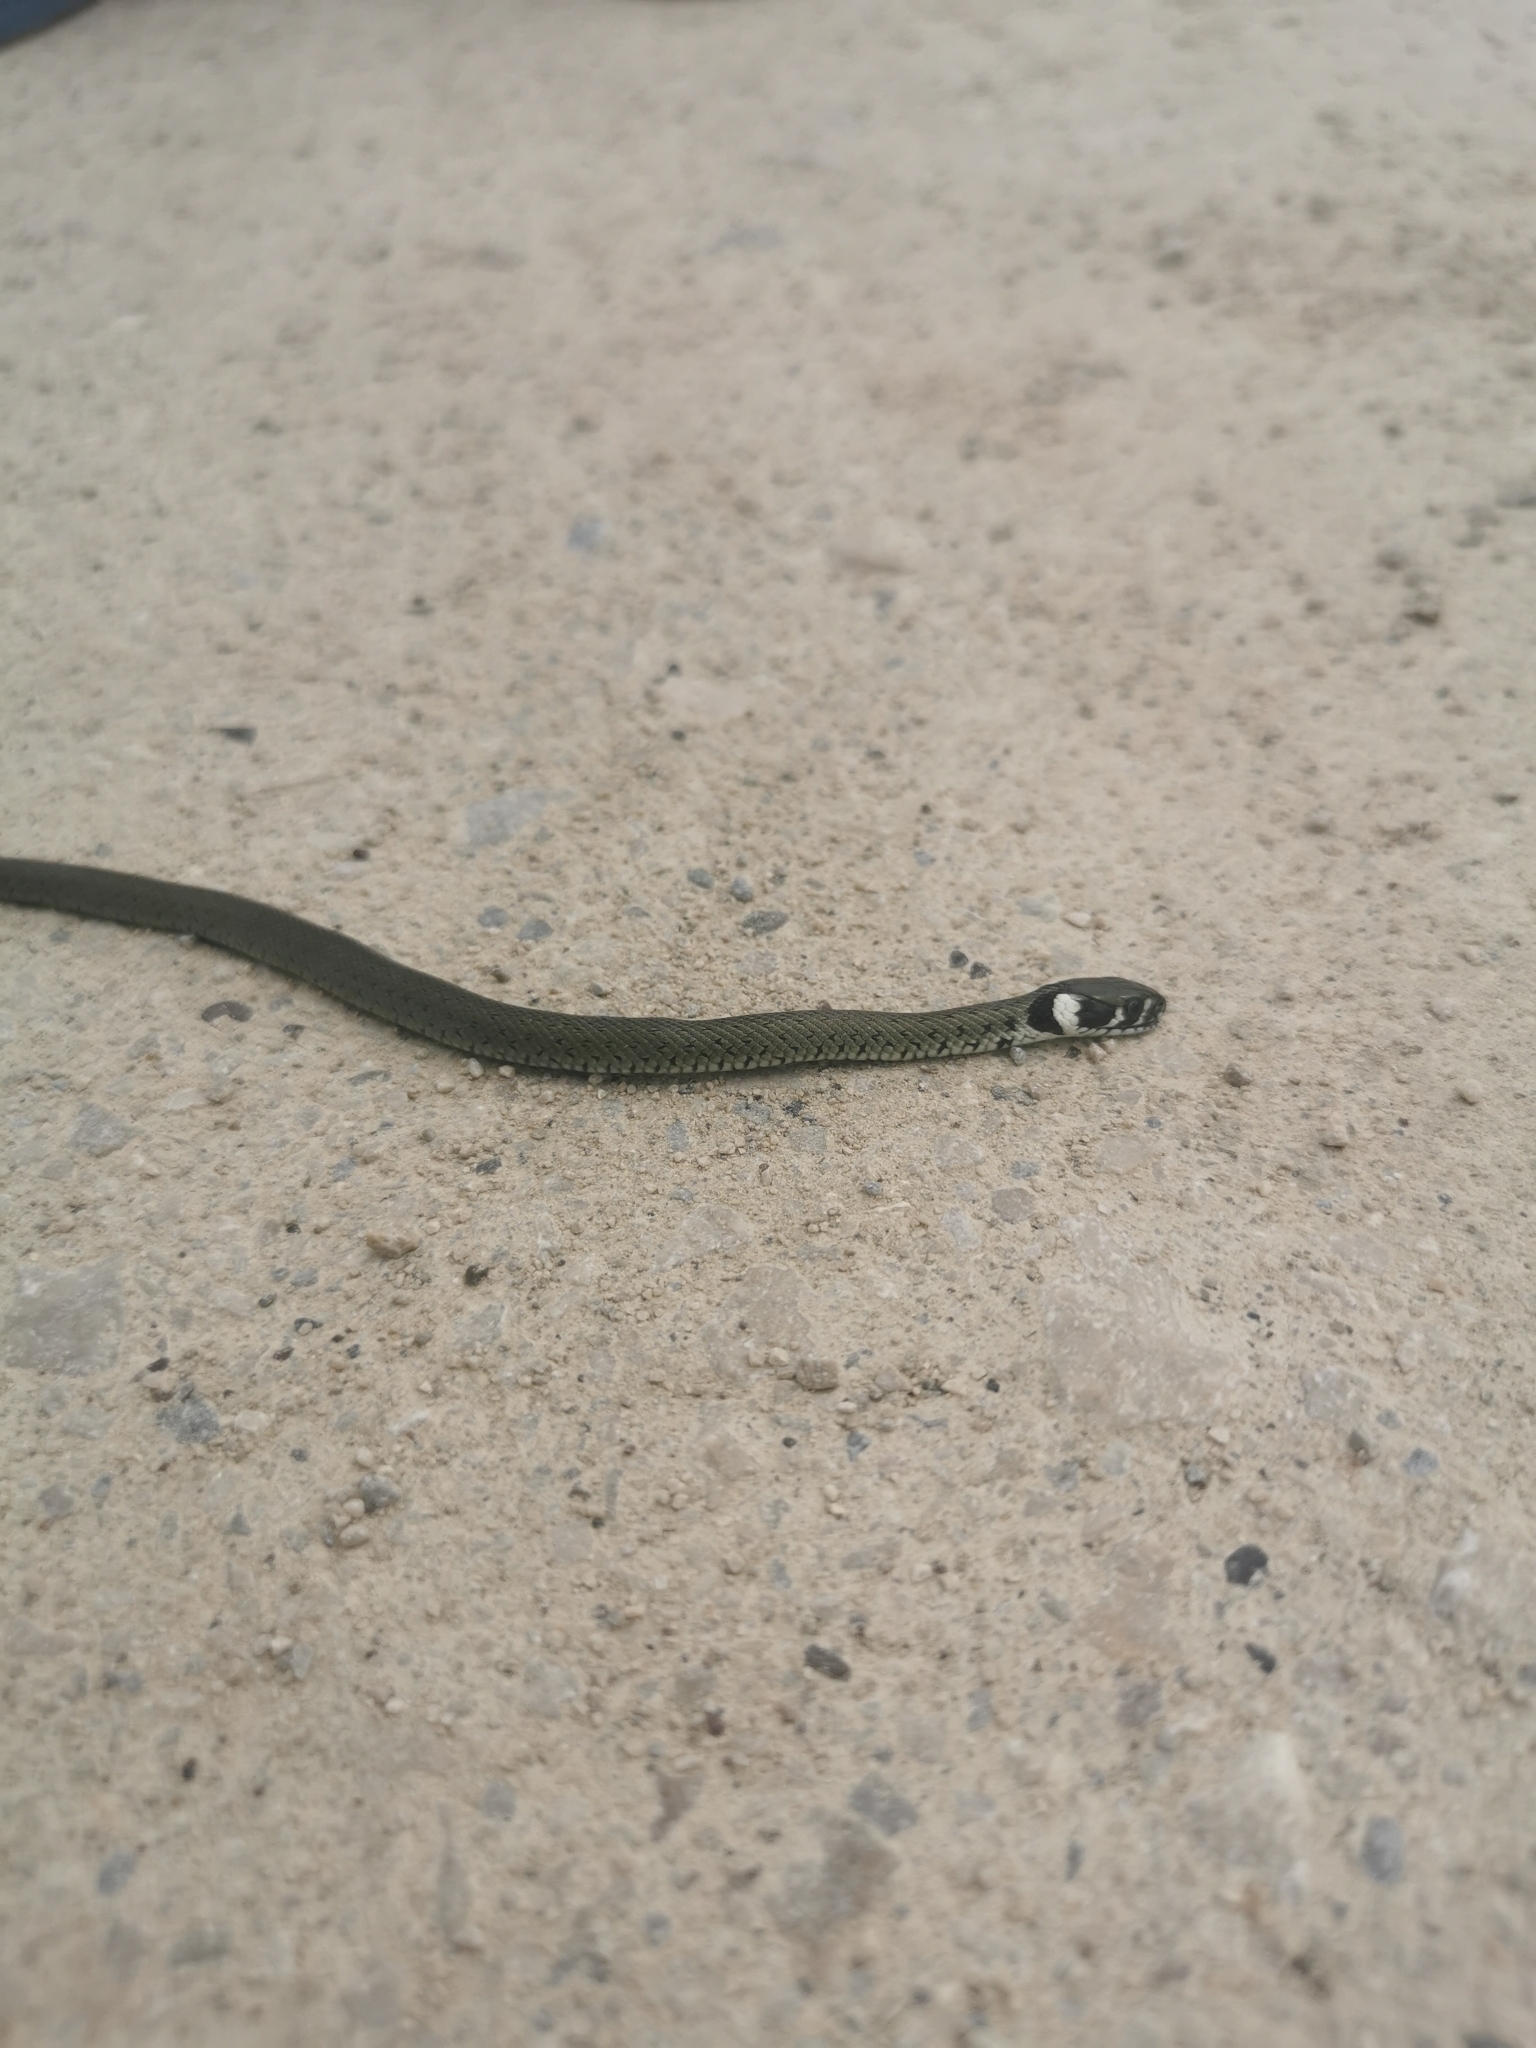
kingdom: Animalia
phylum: Chordata
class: Squamata
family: Colubridae
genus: Natrix
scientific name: Natrix natrix
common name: Grass snake
